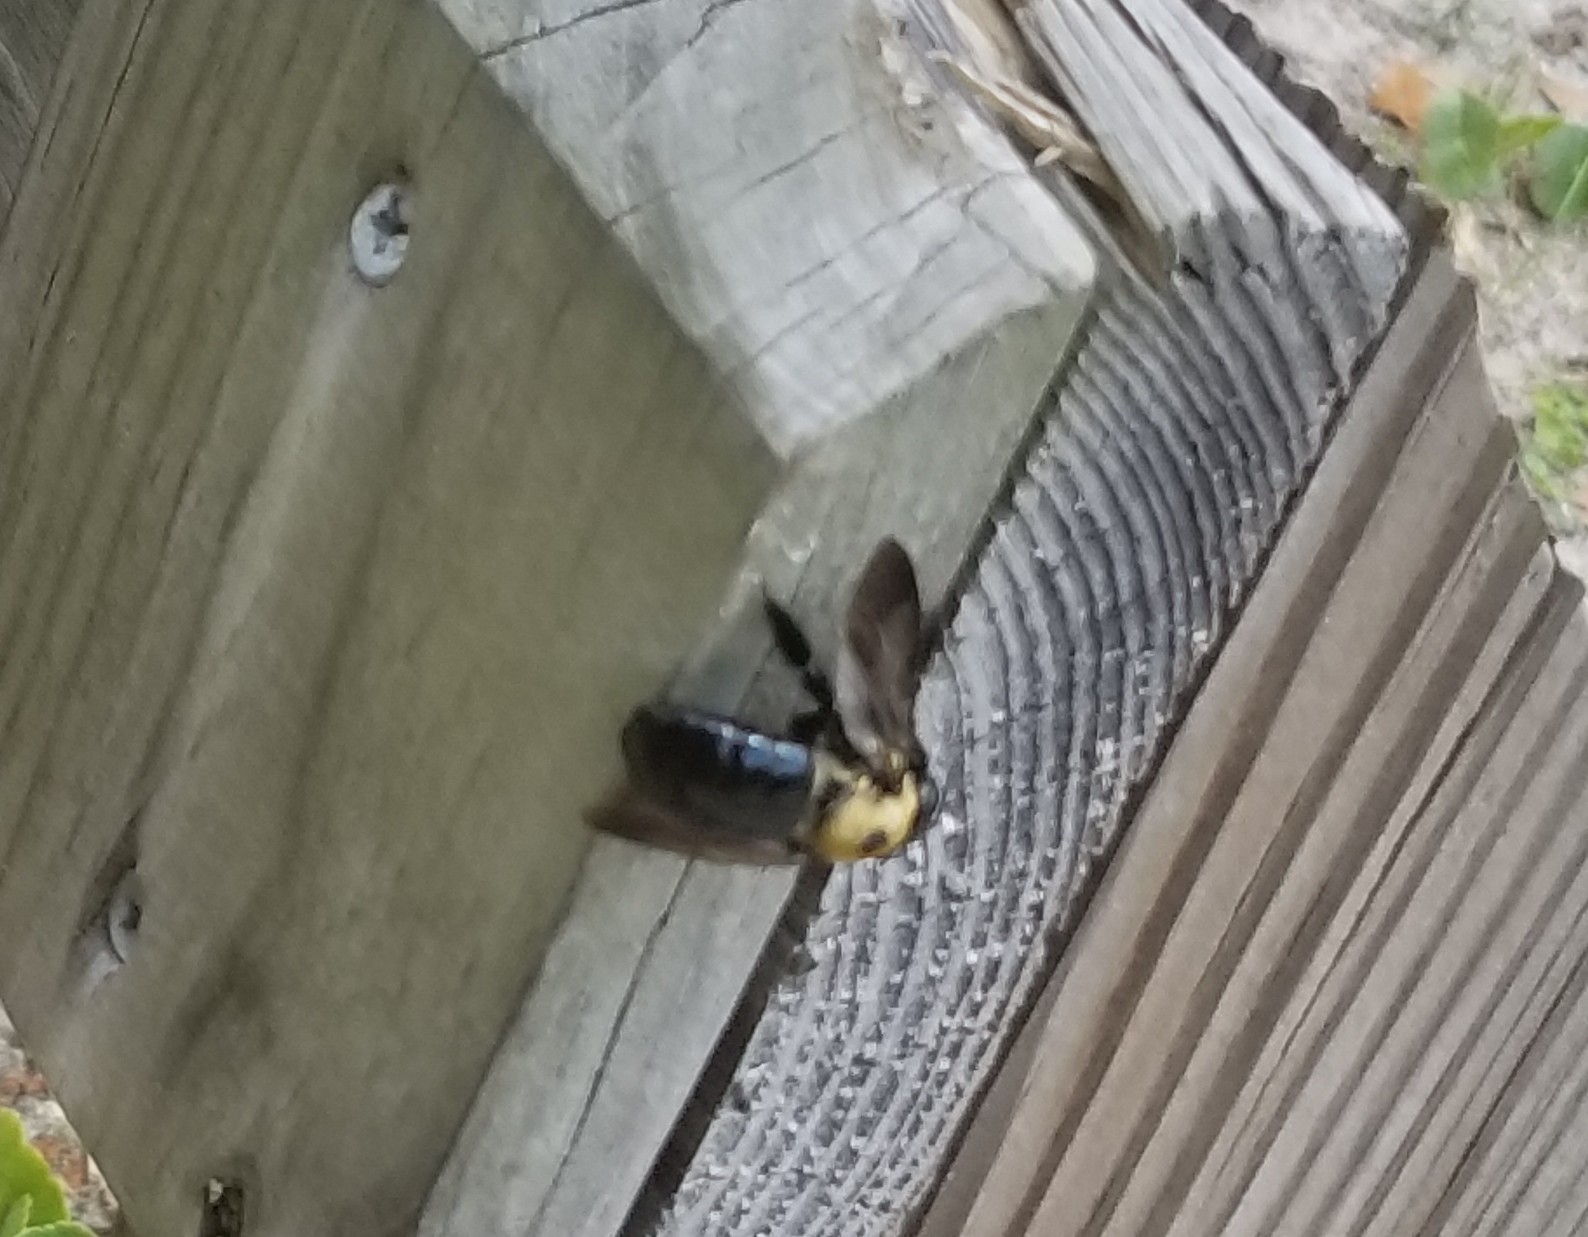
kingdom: Animalia
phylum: Arthropoda
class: Insecta
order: Hymenoptera
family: Apidae
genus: Xylocopa
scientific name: Xylocopa virginica
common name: Carpenter bee
